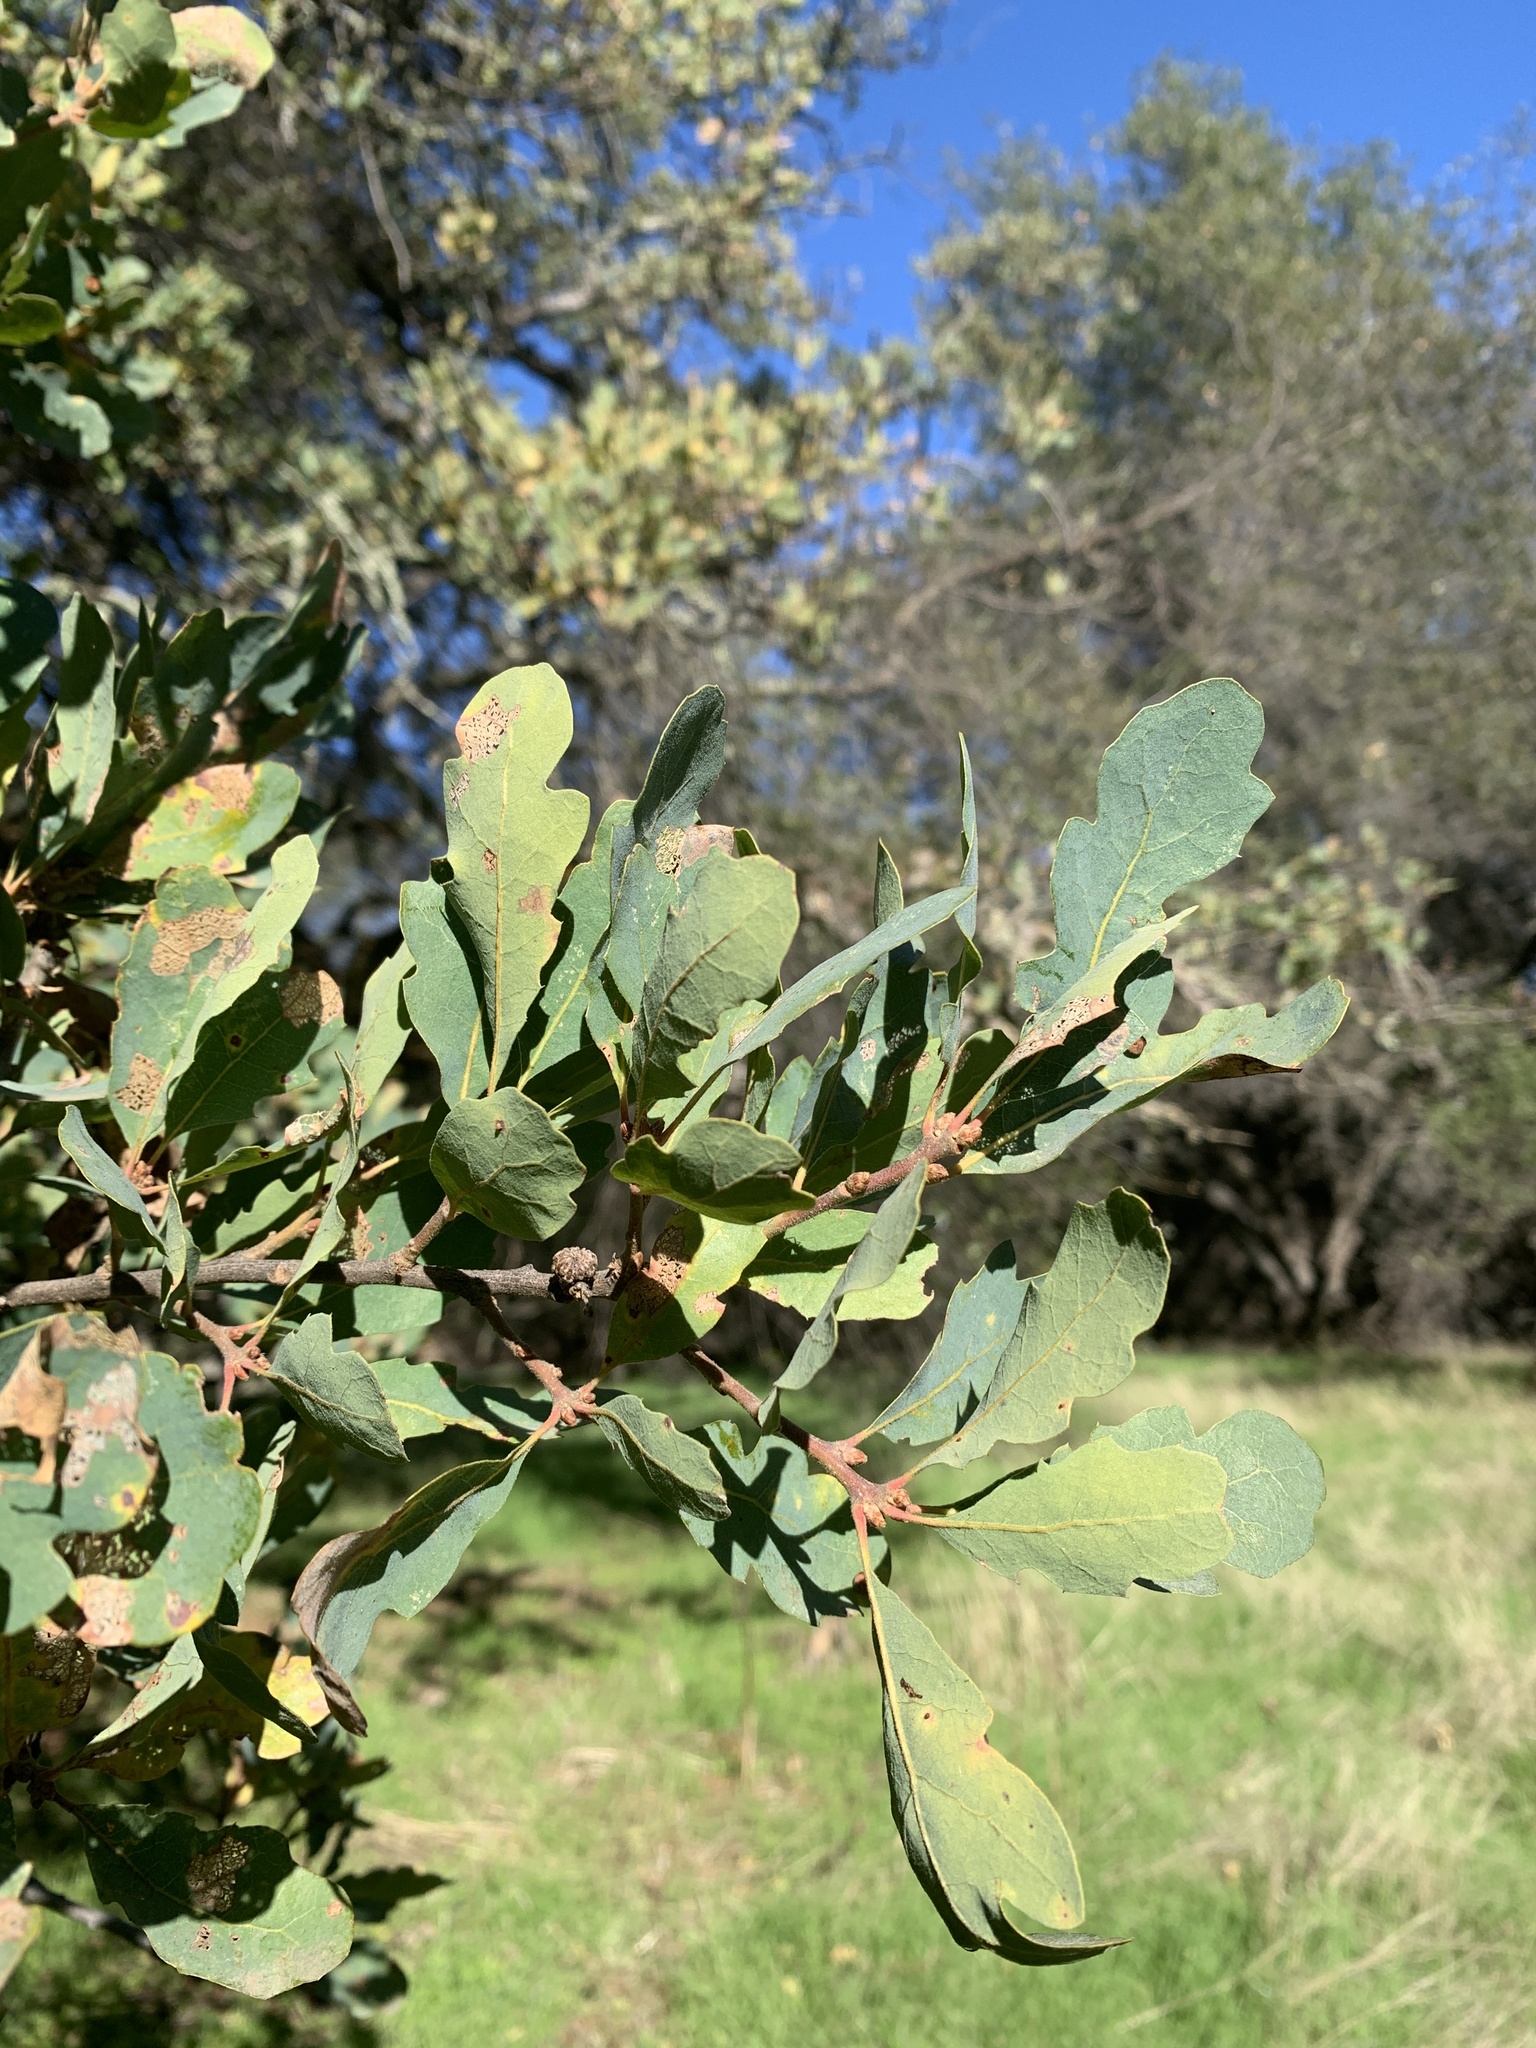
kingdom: Plantae
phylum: Tracheophyta
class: Magnoliopsida
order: Fagales
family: Fagaceae
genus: Quercus
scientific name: Quercus douglasii
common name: Blue oak
